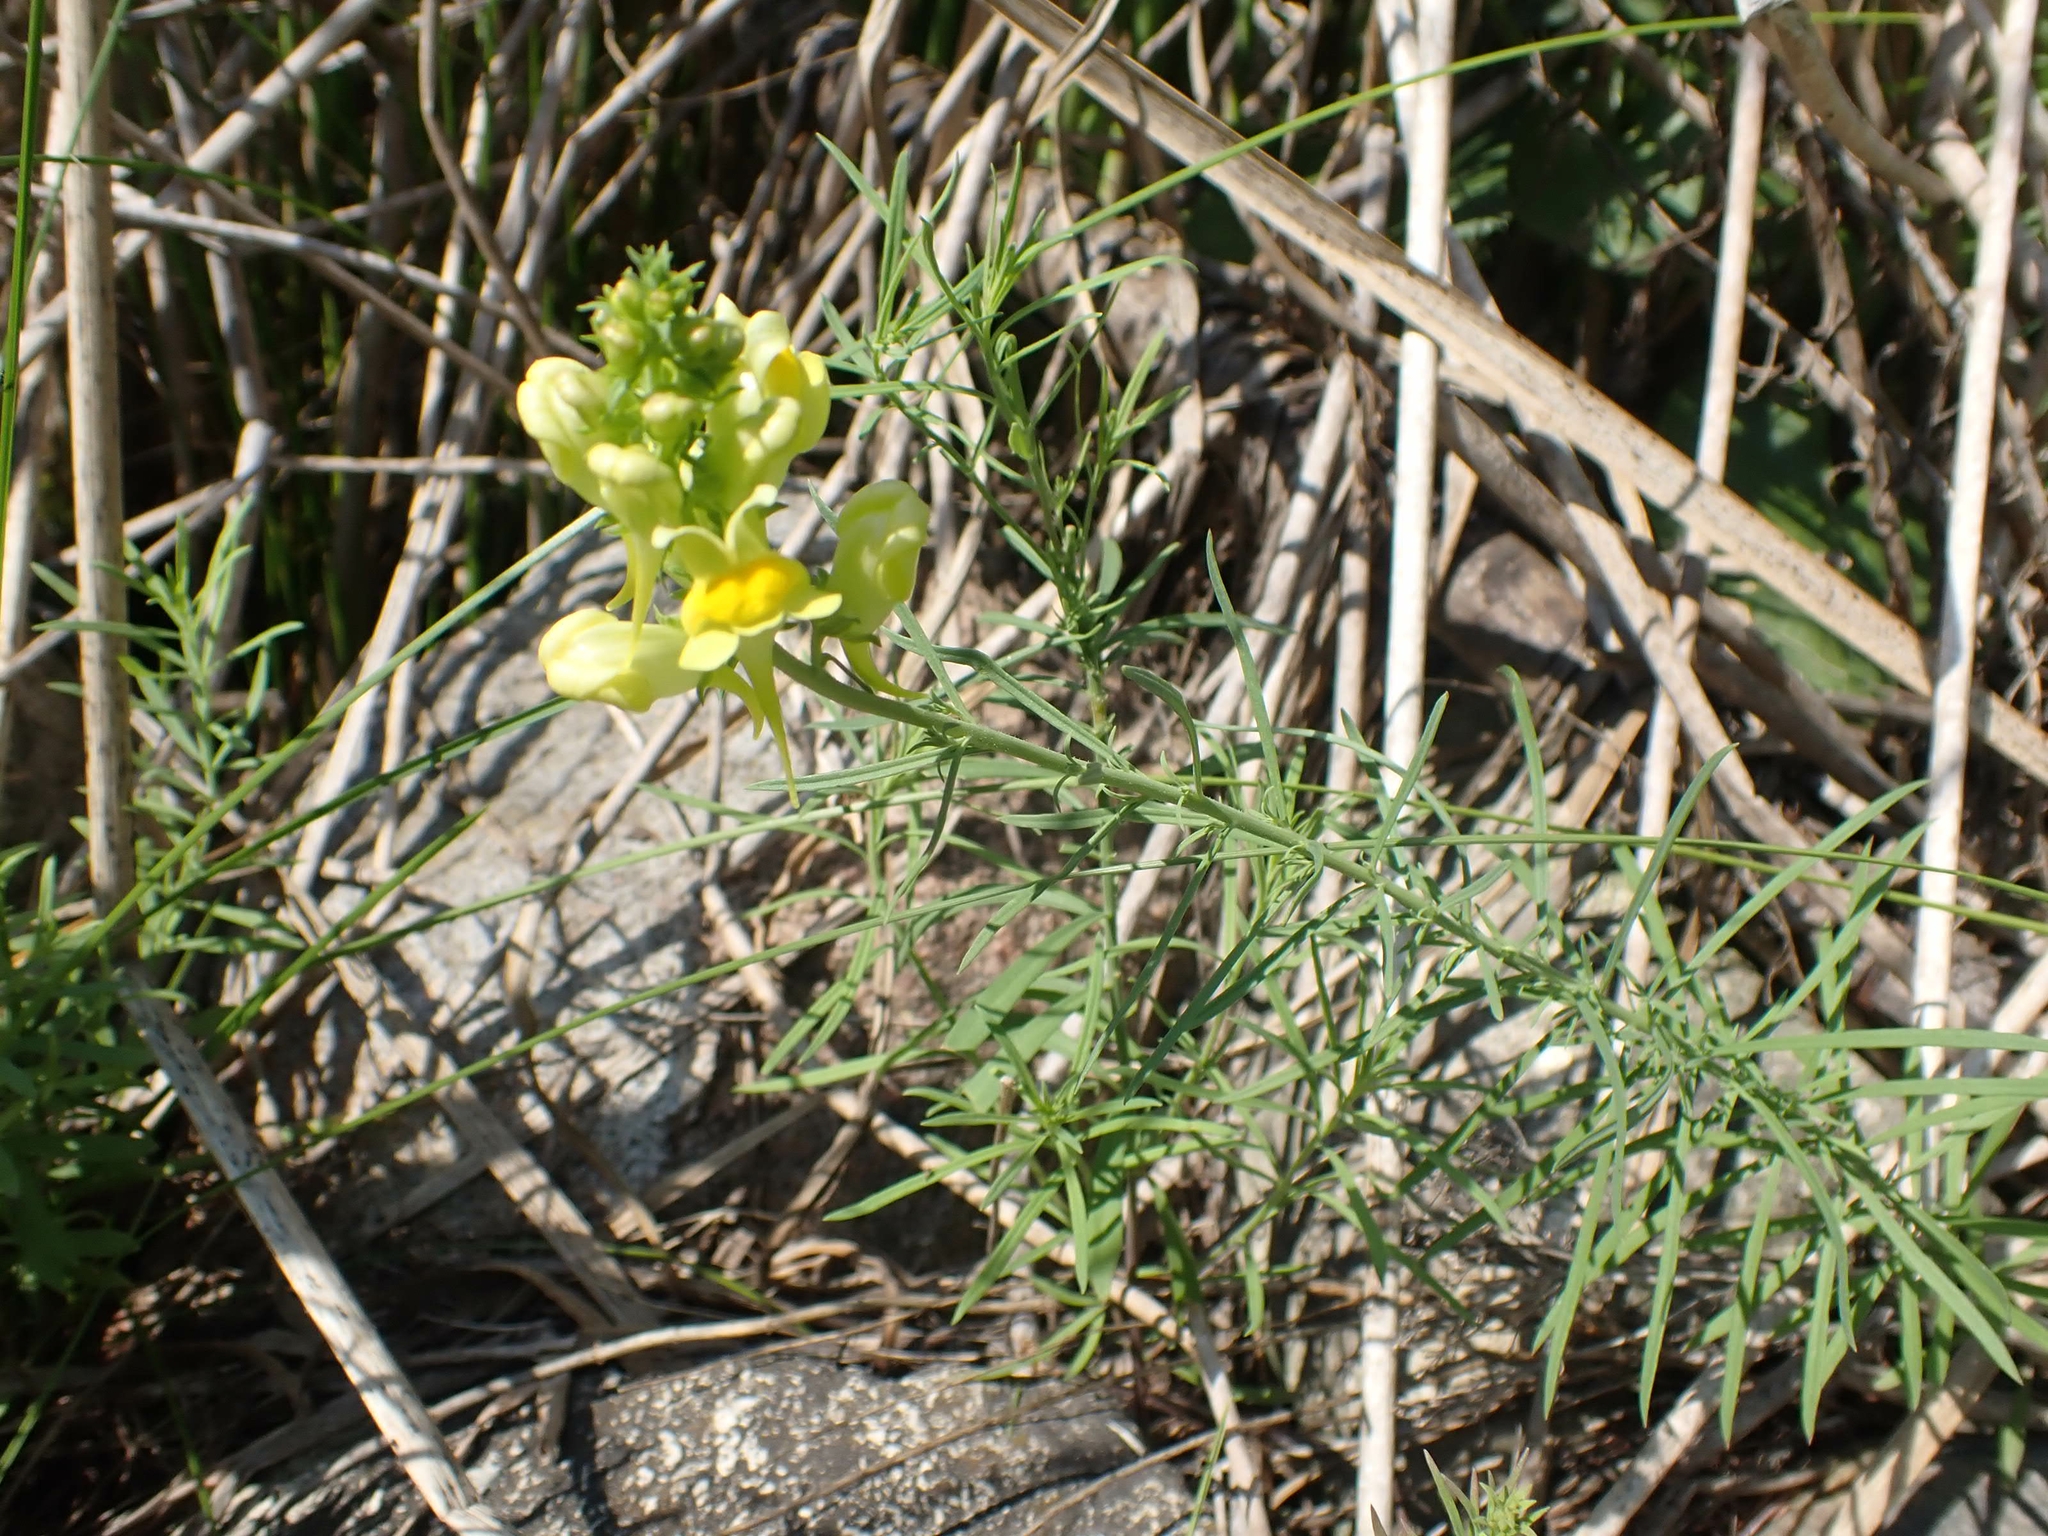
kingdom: Plantae
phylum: Tracheophyta
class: Magnoliopsida
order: Lamiales
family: Plantaginaceae
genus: Linaria
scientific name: Linaria vulgaris
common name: Butter and eggs
